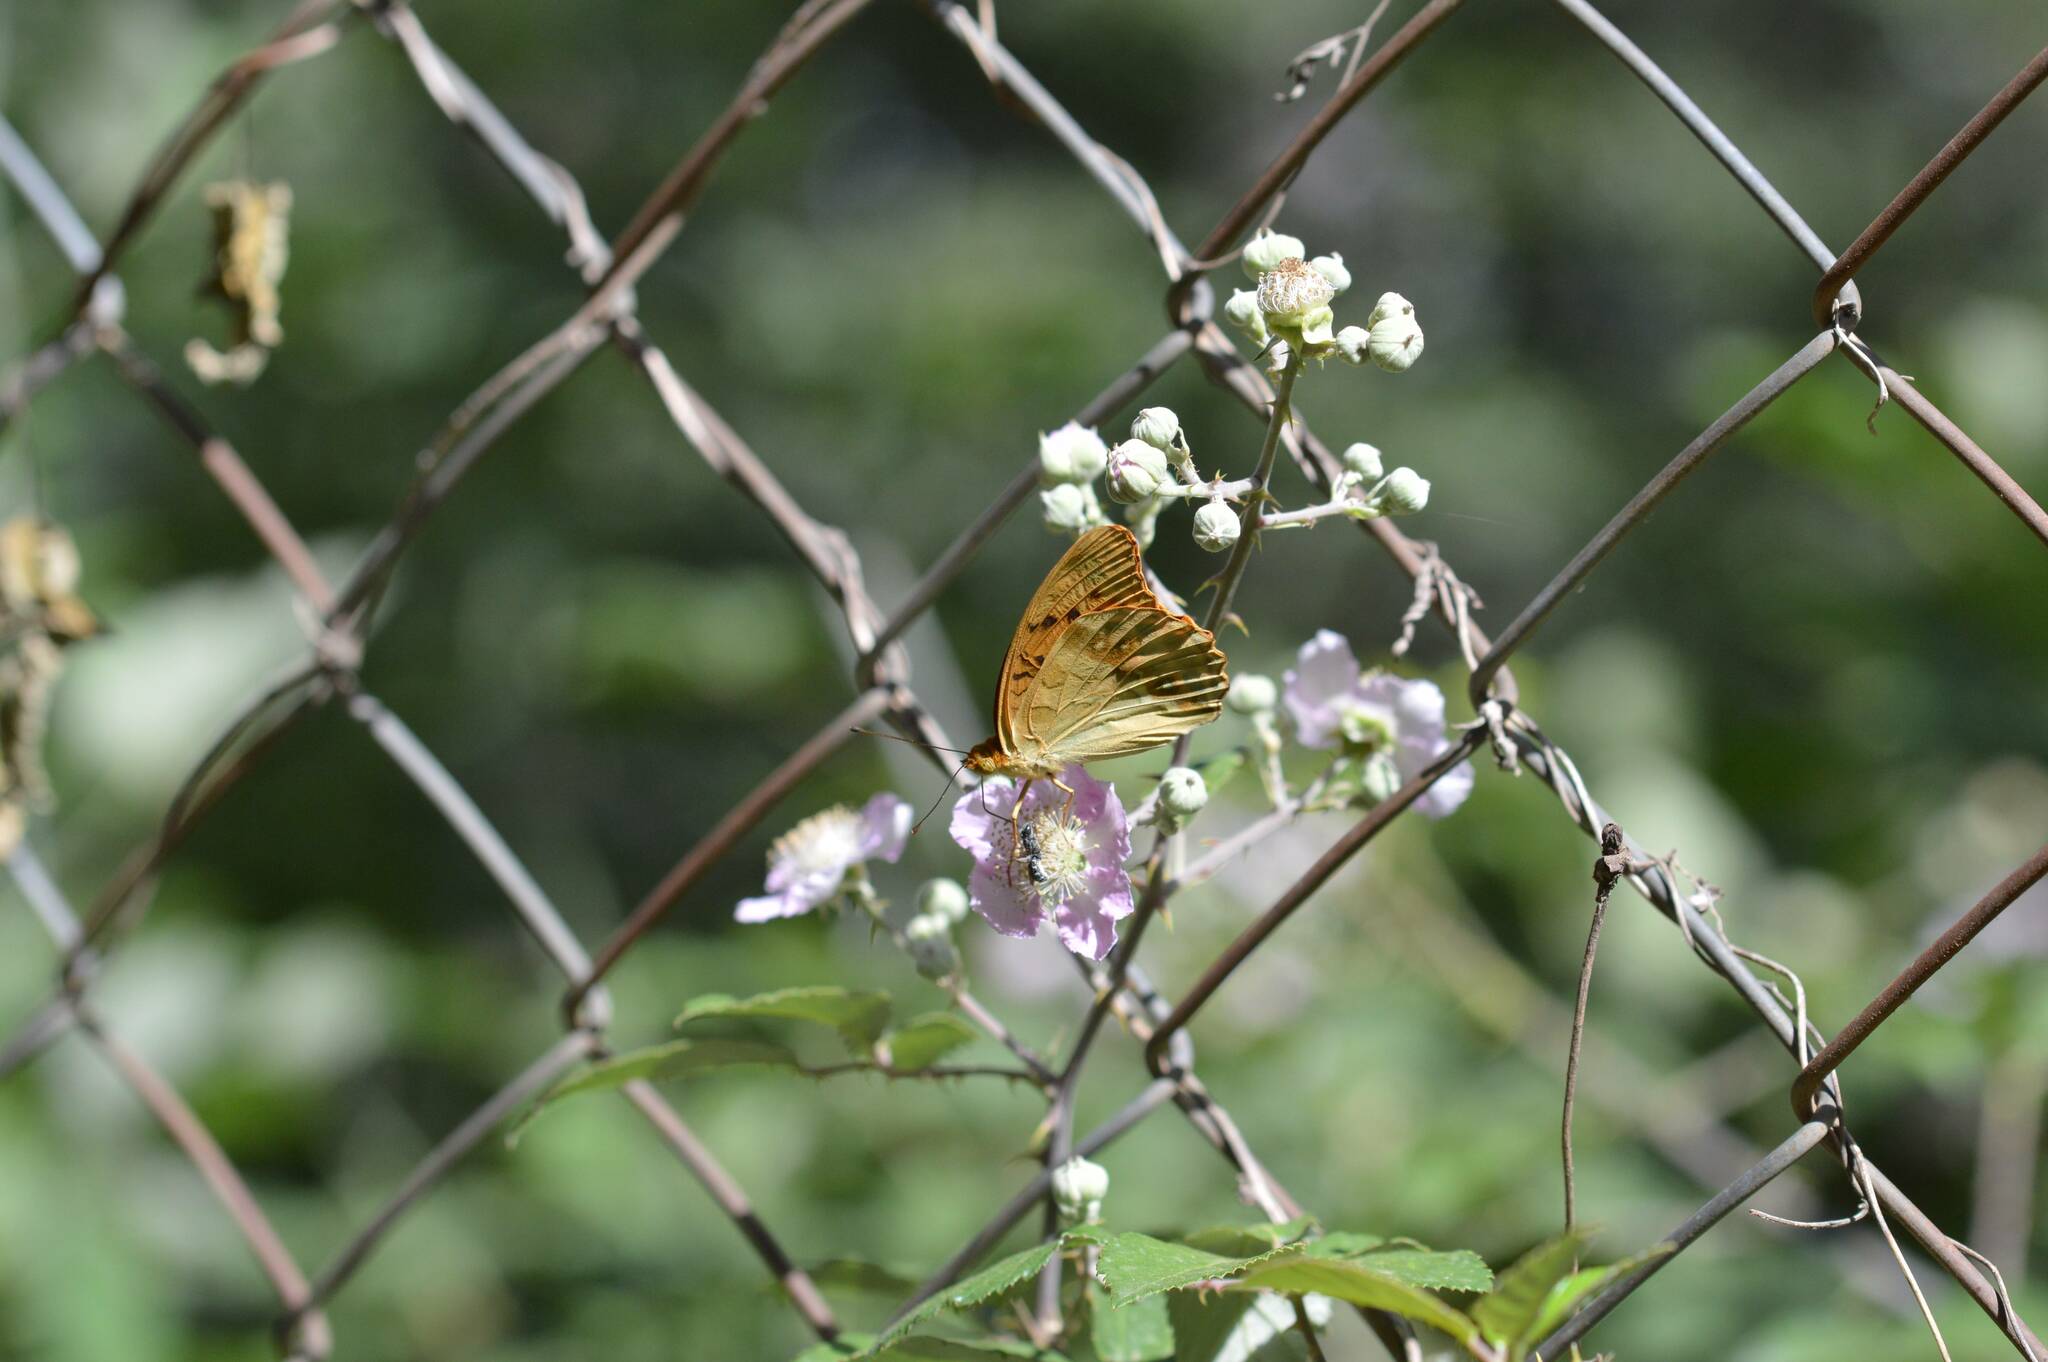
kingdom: Animalia
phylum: Arthropoda
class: Insecta
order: Lepidoptera
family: Nymphalidae
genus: Argynnis
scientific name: Argynnis paphia
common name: Silver-washed fritillary
